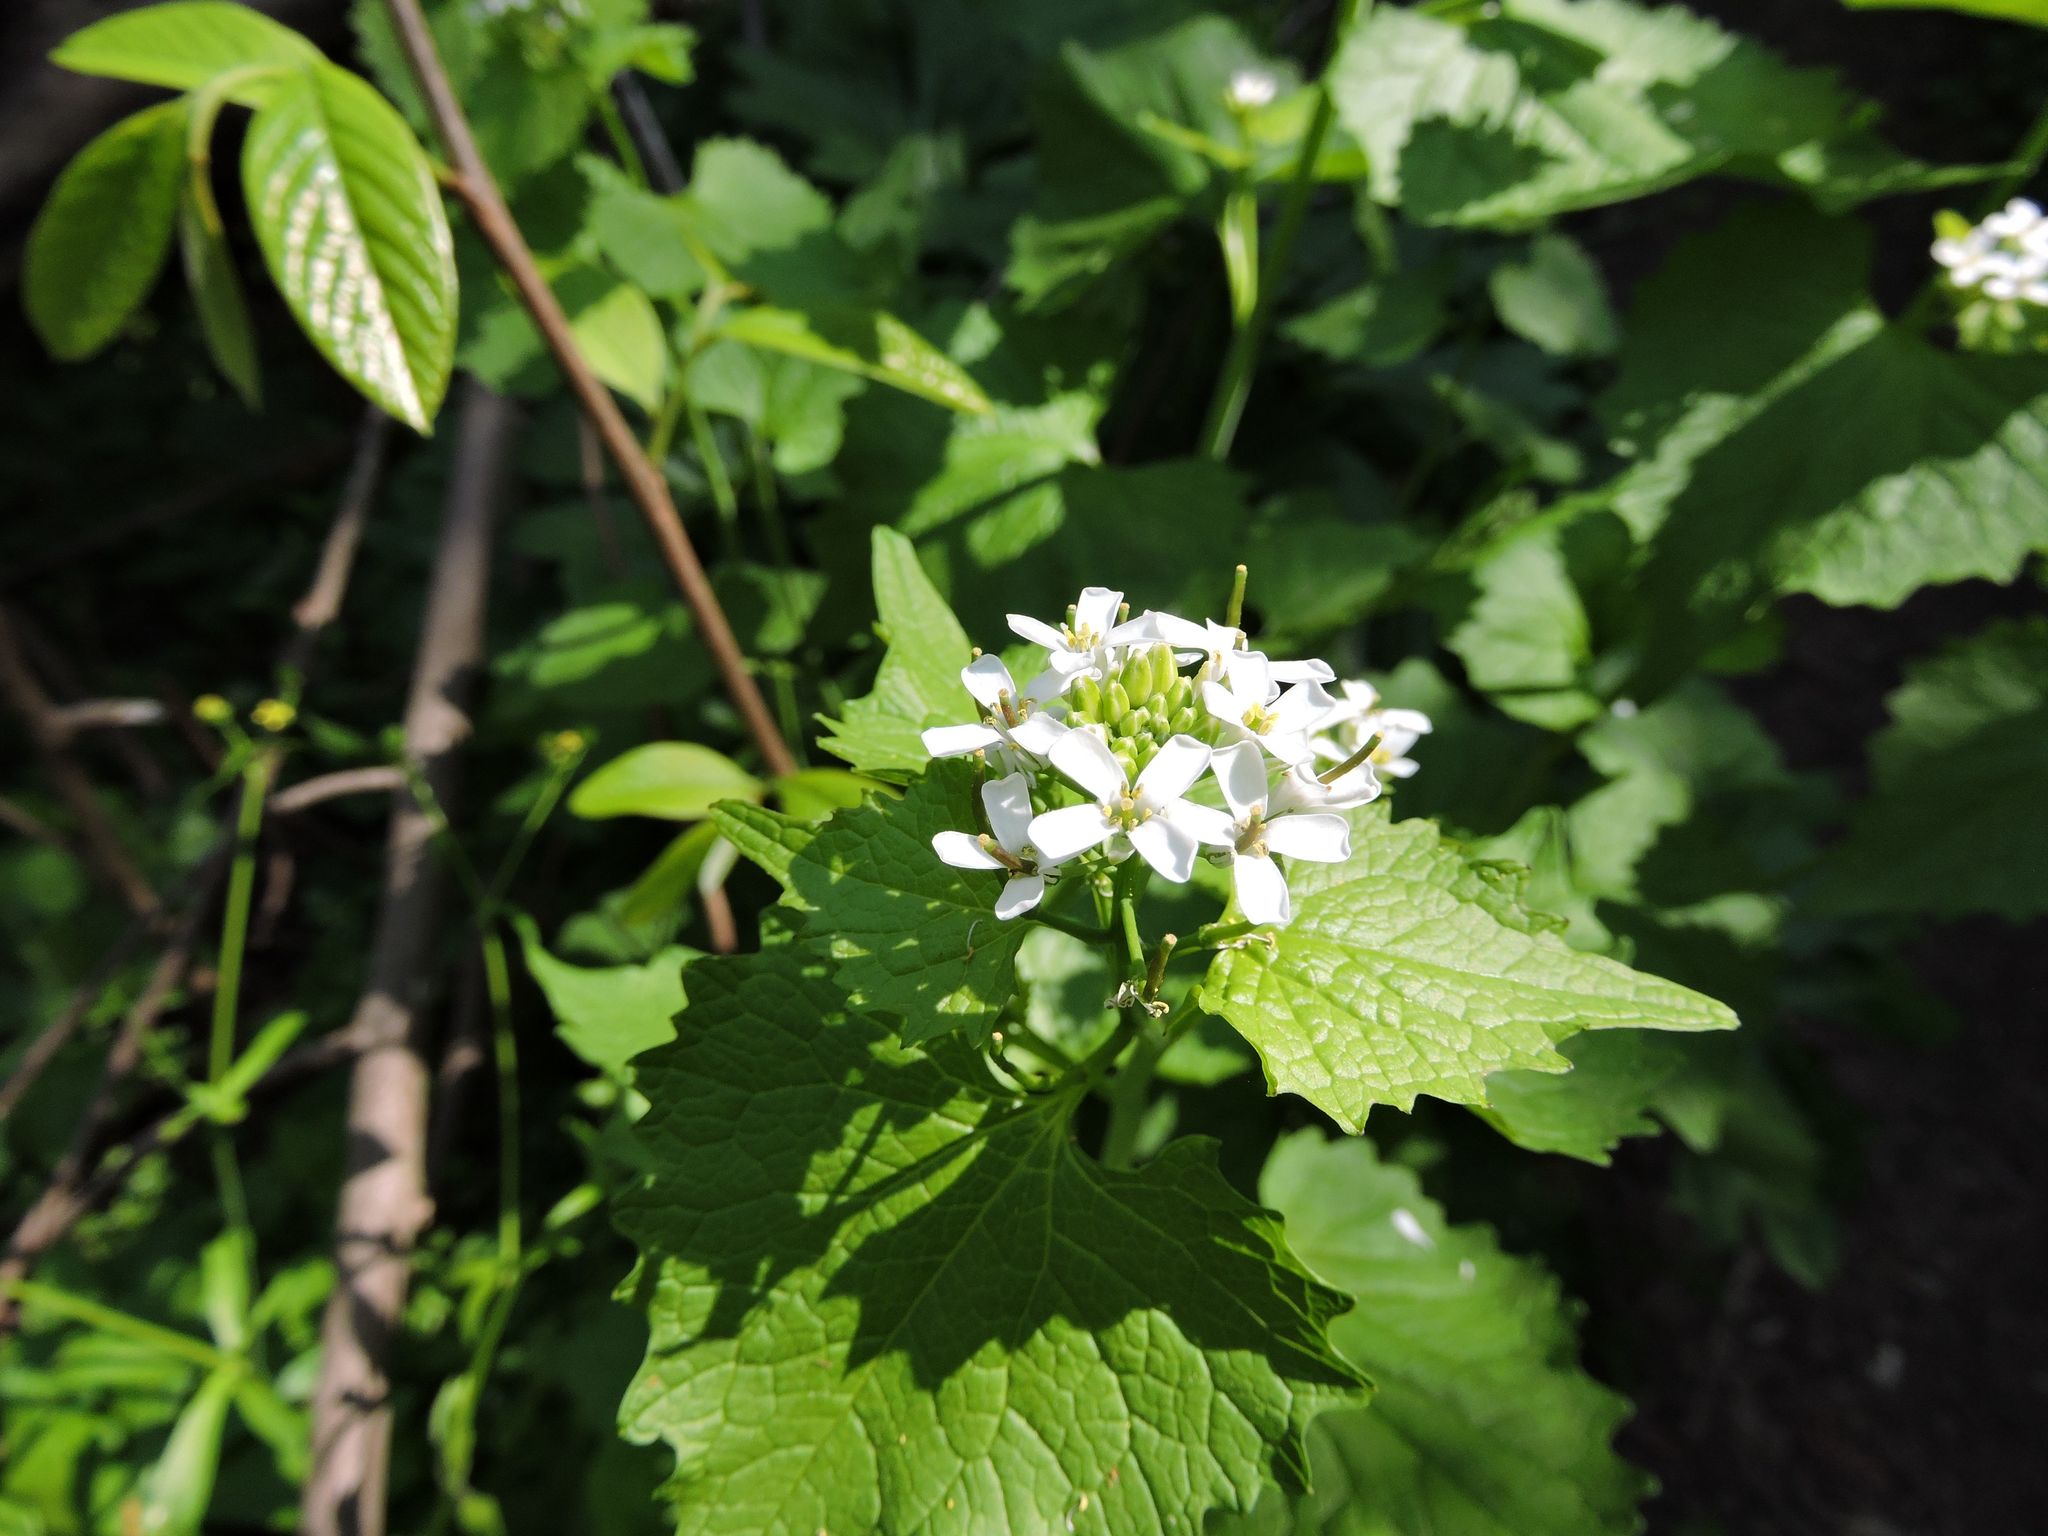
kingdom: Plantae
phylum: Tracheophyta
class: Magnoliopsida
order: Brassicales
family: Brassicaceae
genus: Alliaria
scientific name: Alliaria petiolata
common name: Garlic mustard
